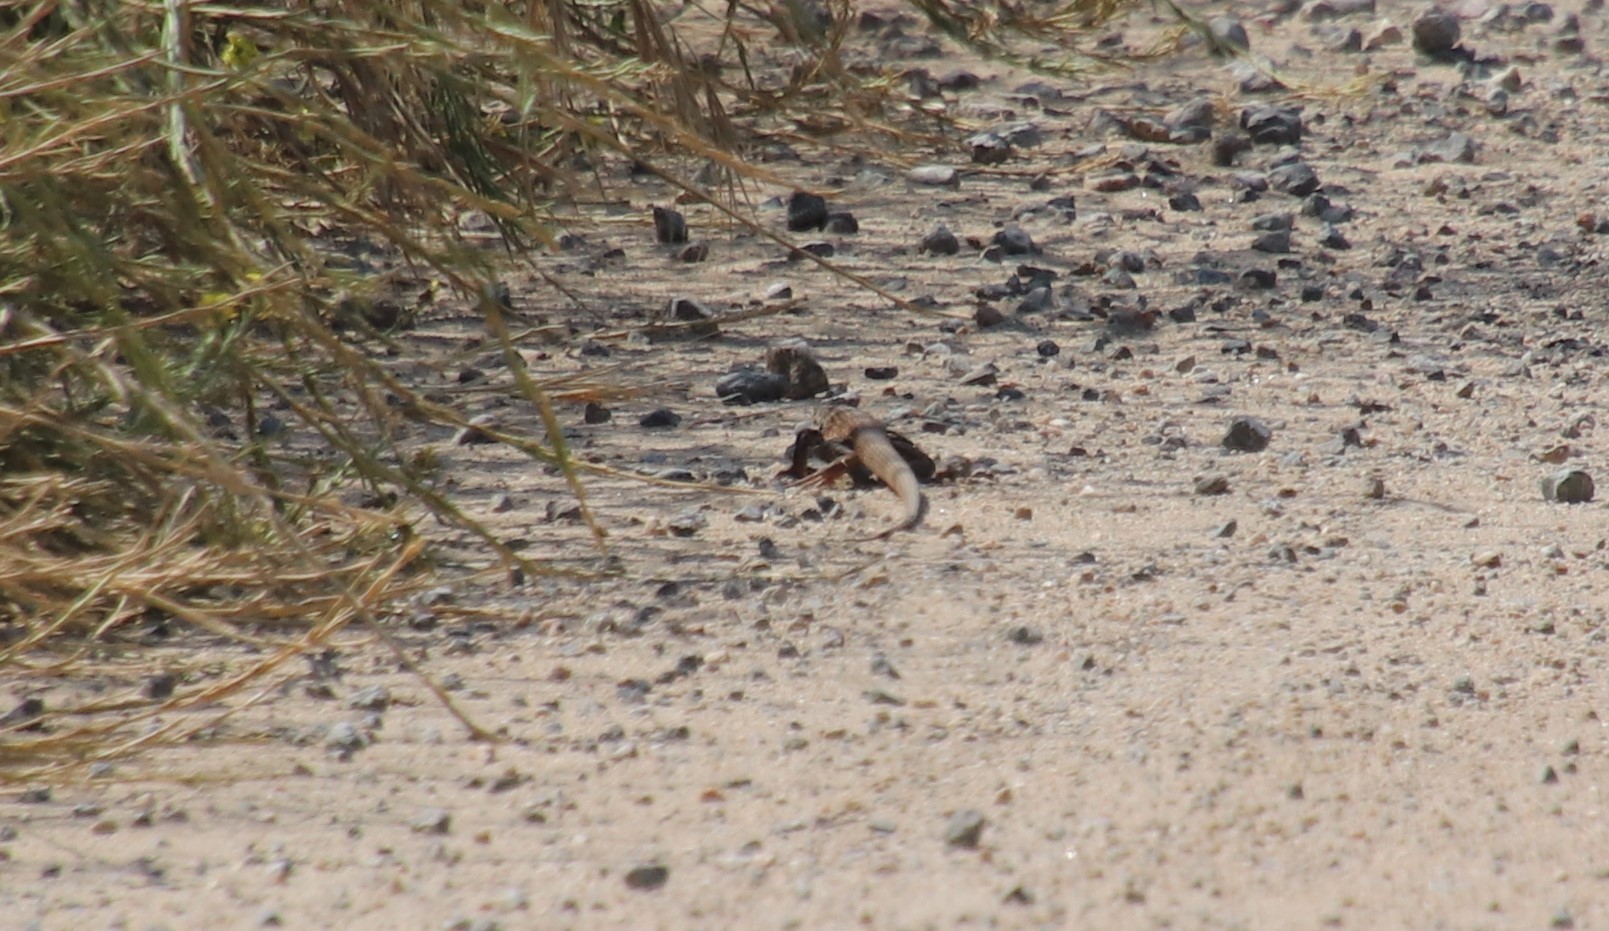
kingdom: Animalia
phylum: Chordata
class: Squamata
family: Teiidae
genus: Aspidoscelis
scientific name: Aspidoscelis tigris
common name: Tiger whiptail
